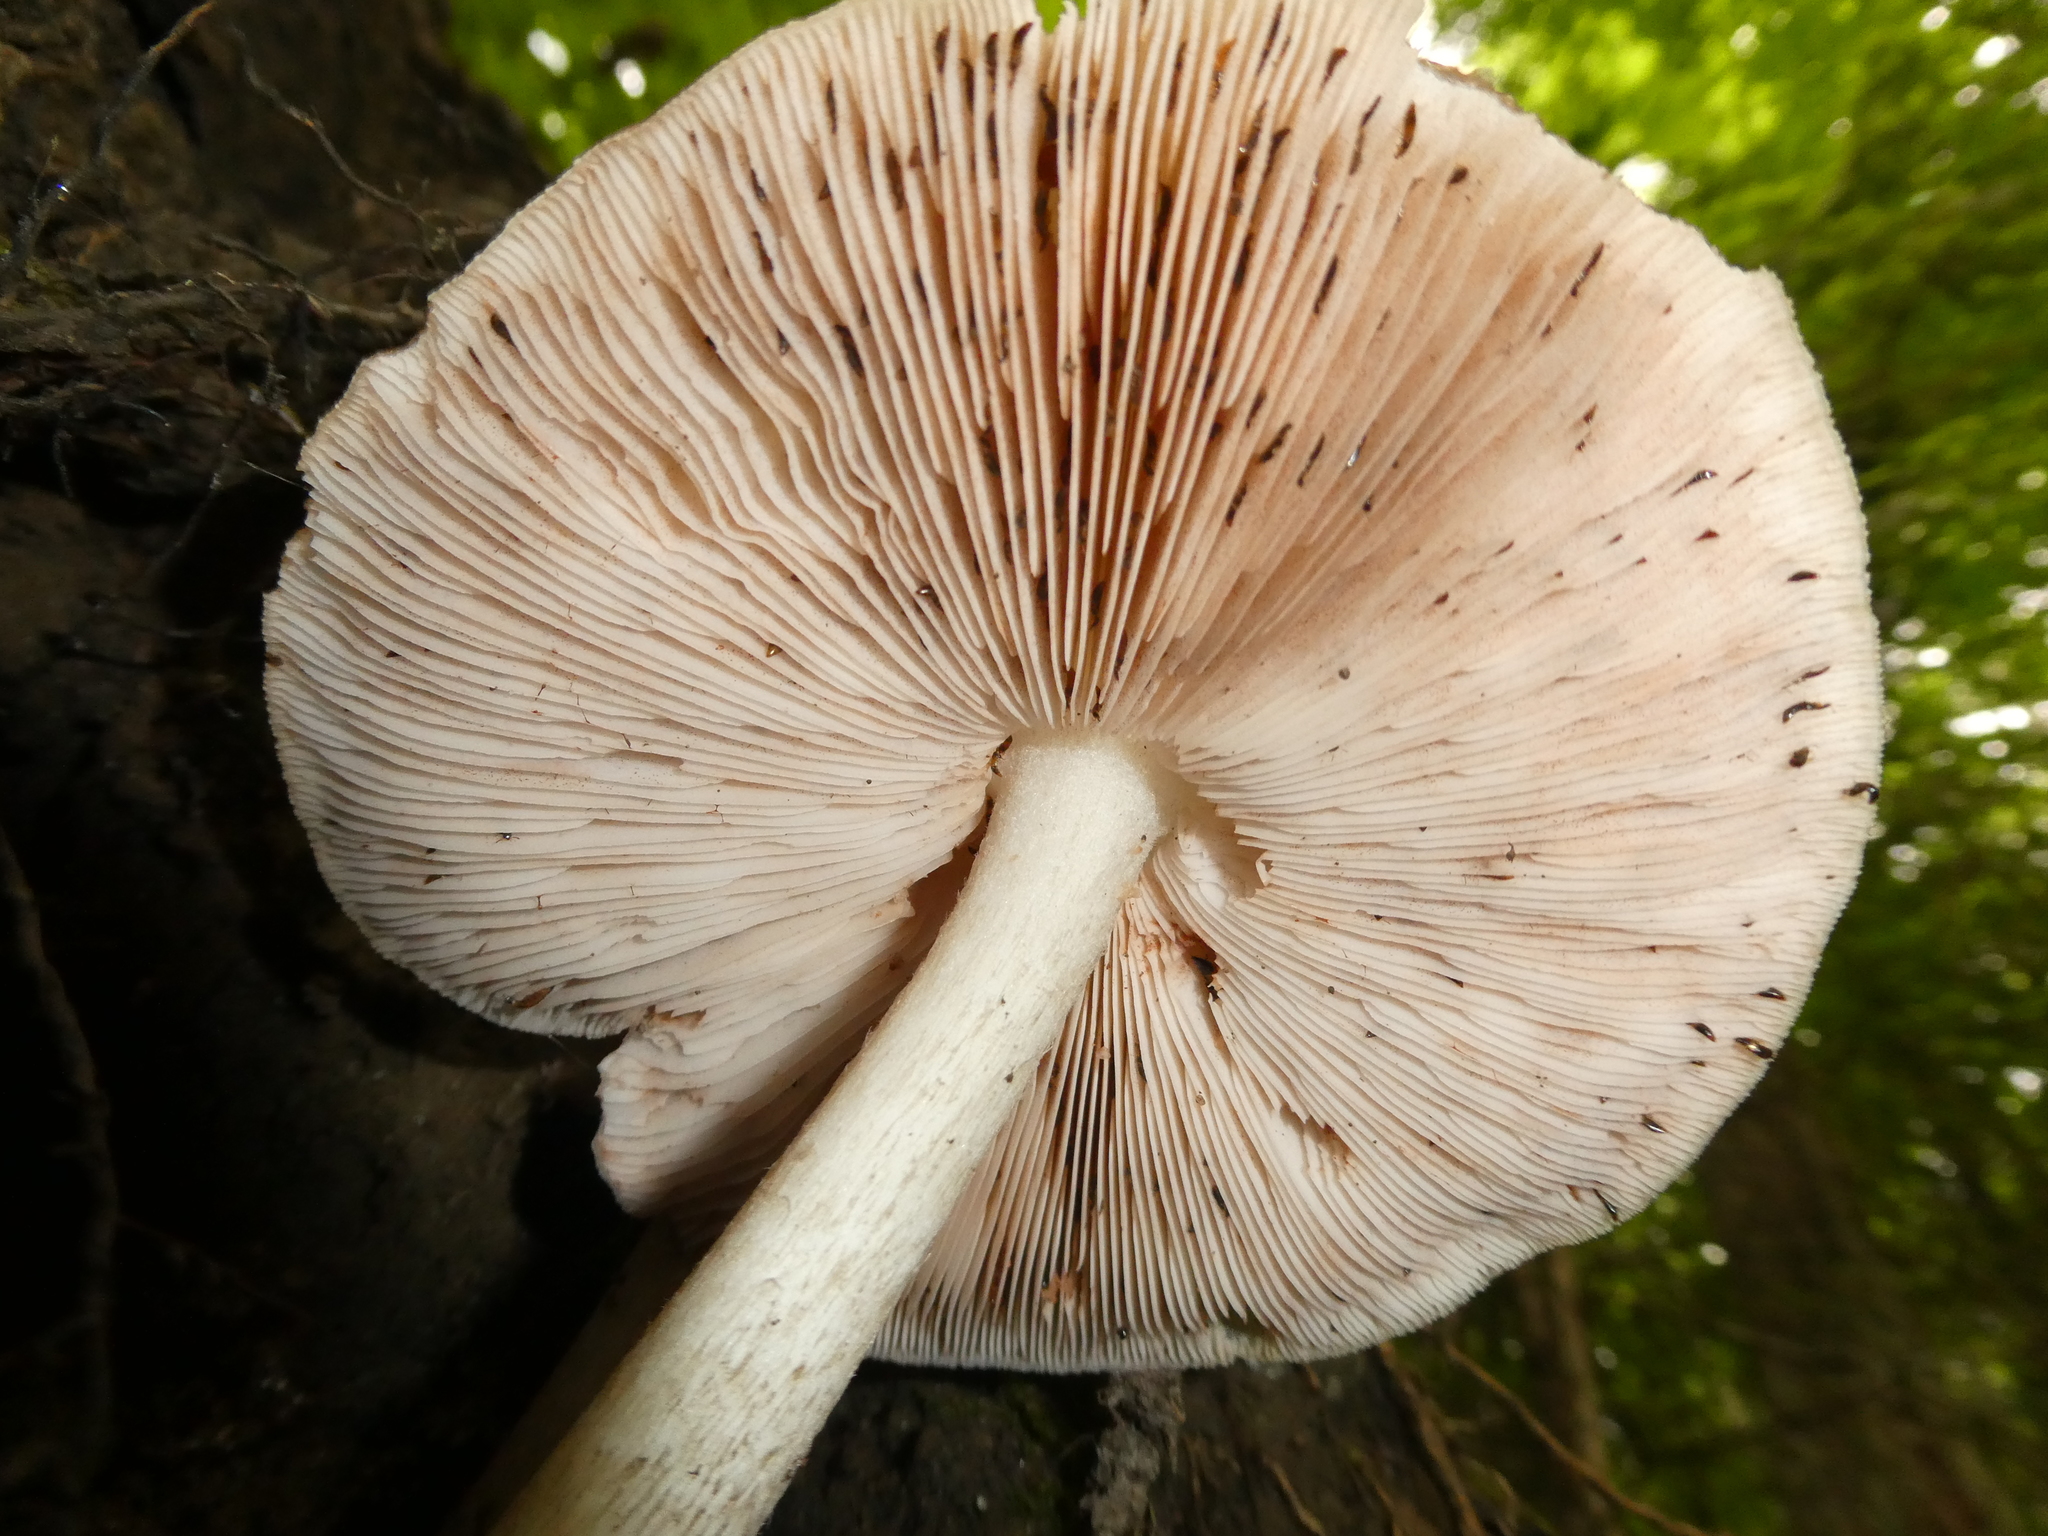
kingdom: Fungi
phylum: Basidiomycota
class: Agaricomycetes
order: Agaricales
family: Pluteaceae
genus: Pluteus
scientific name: Pluteus cervinus
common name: Deer shield
